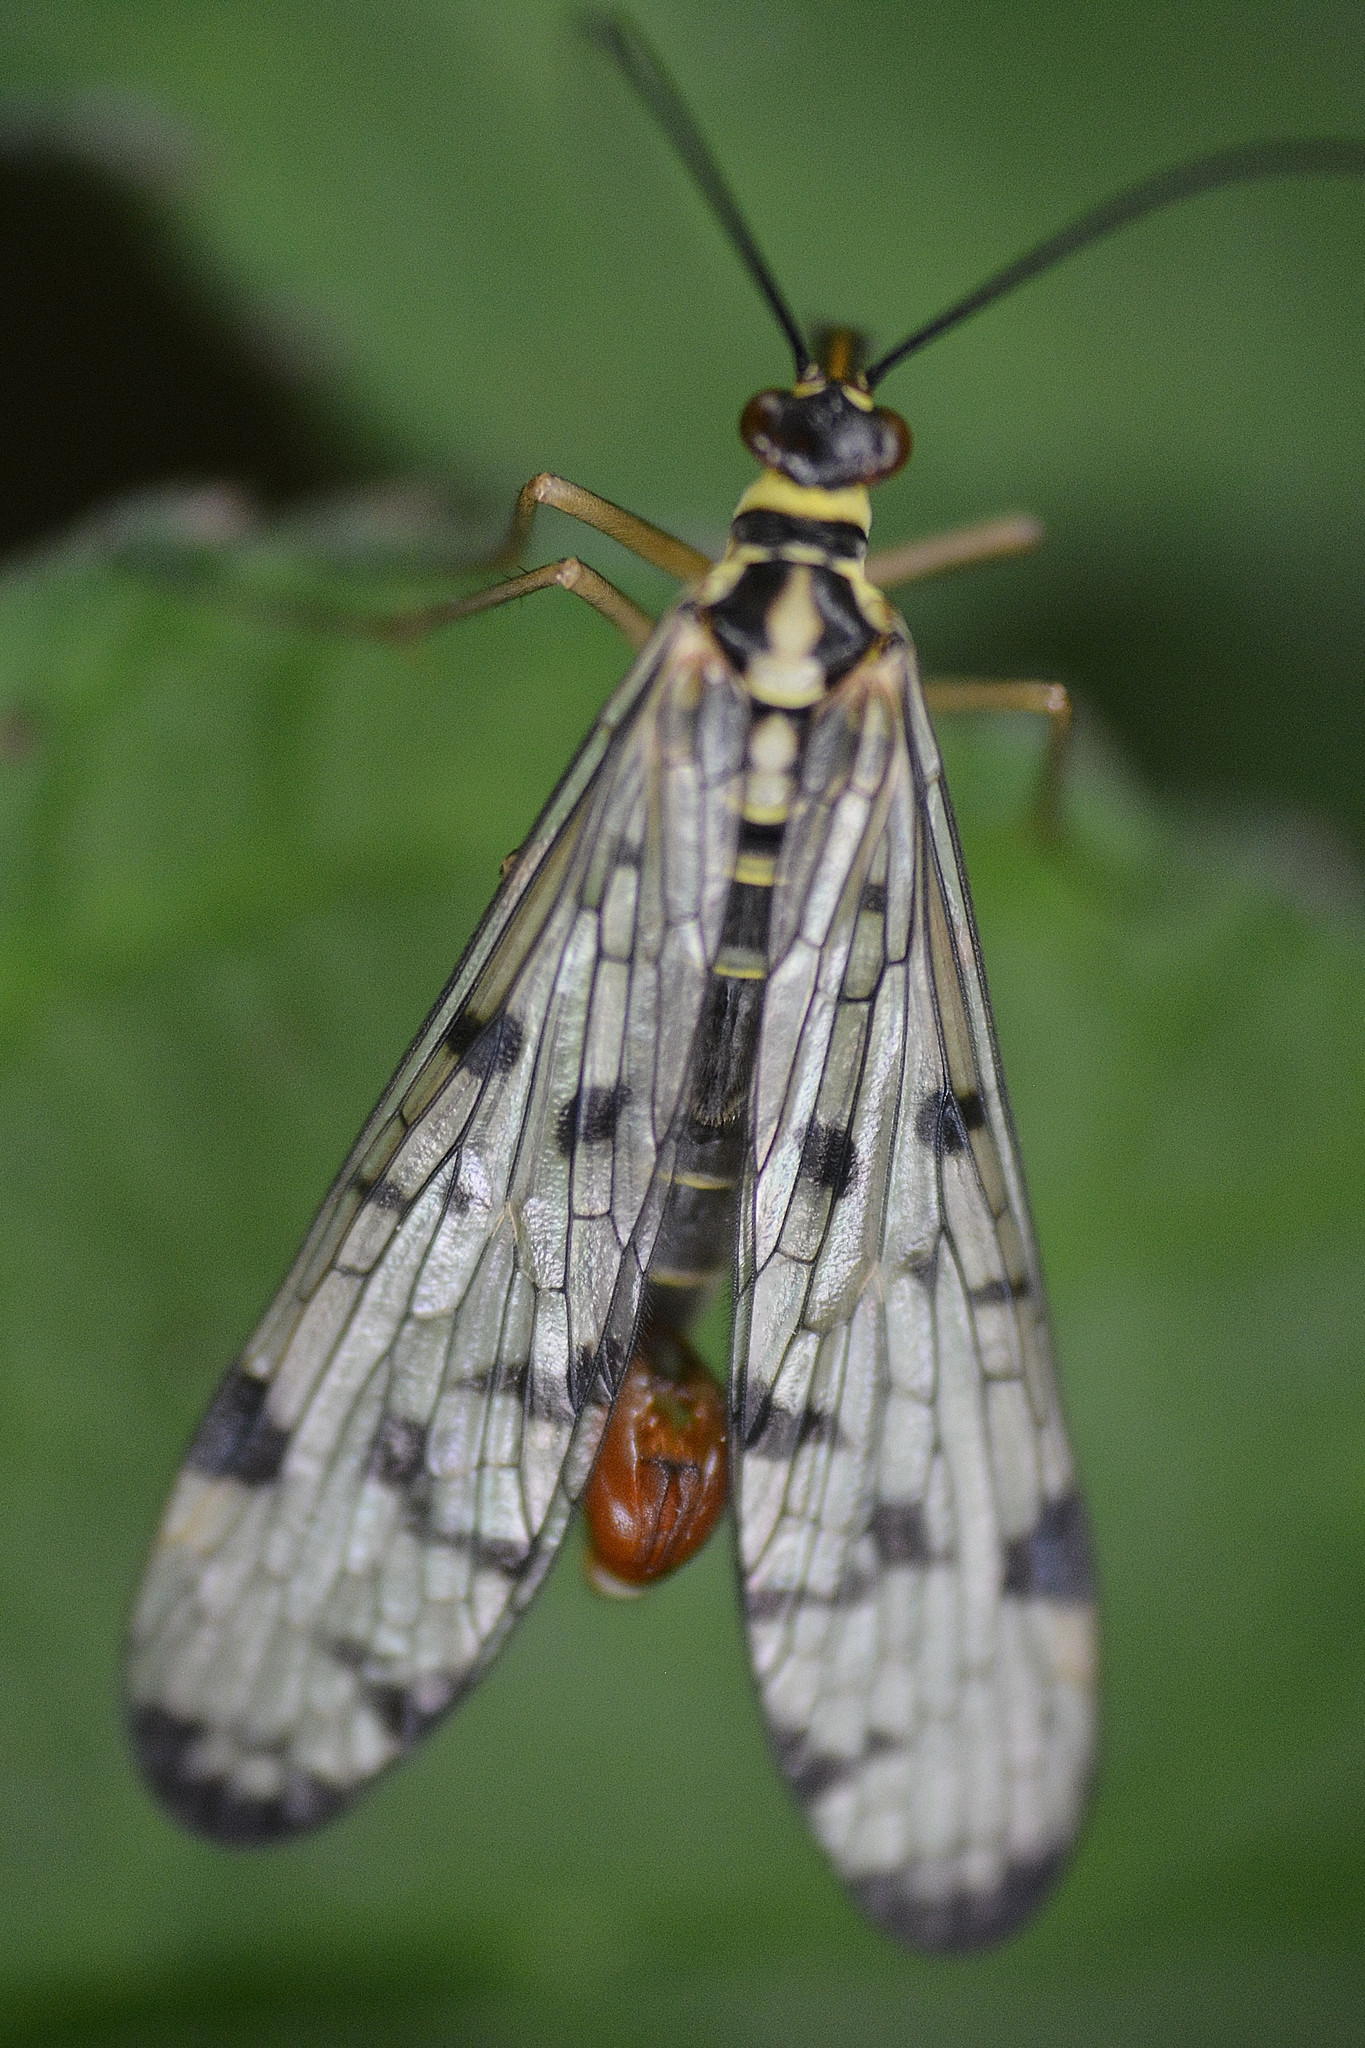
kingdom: Animalia
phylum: Arthropoda
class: Insecta
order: Mecoptera
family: Panorpidae
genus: Panorpa
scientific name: Panorpa germanica
